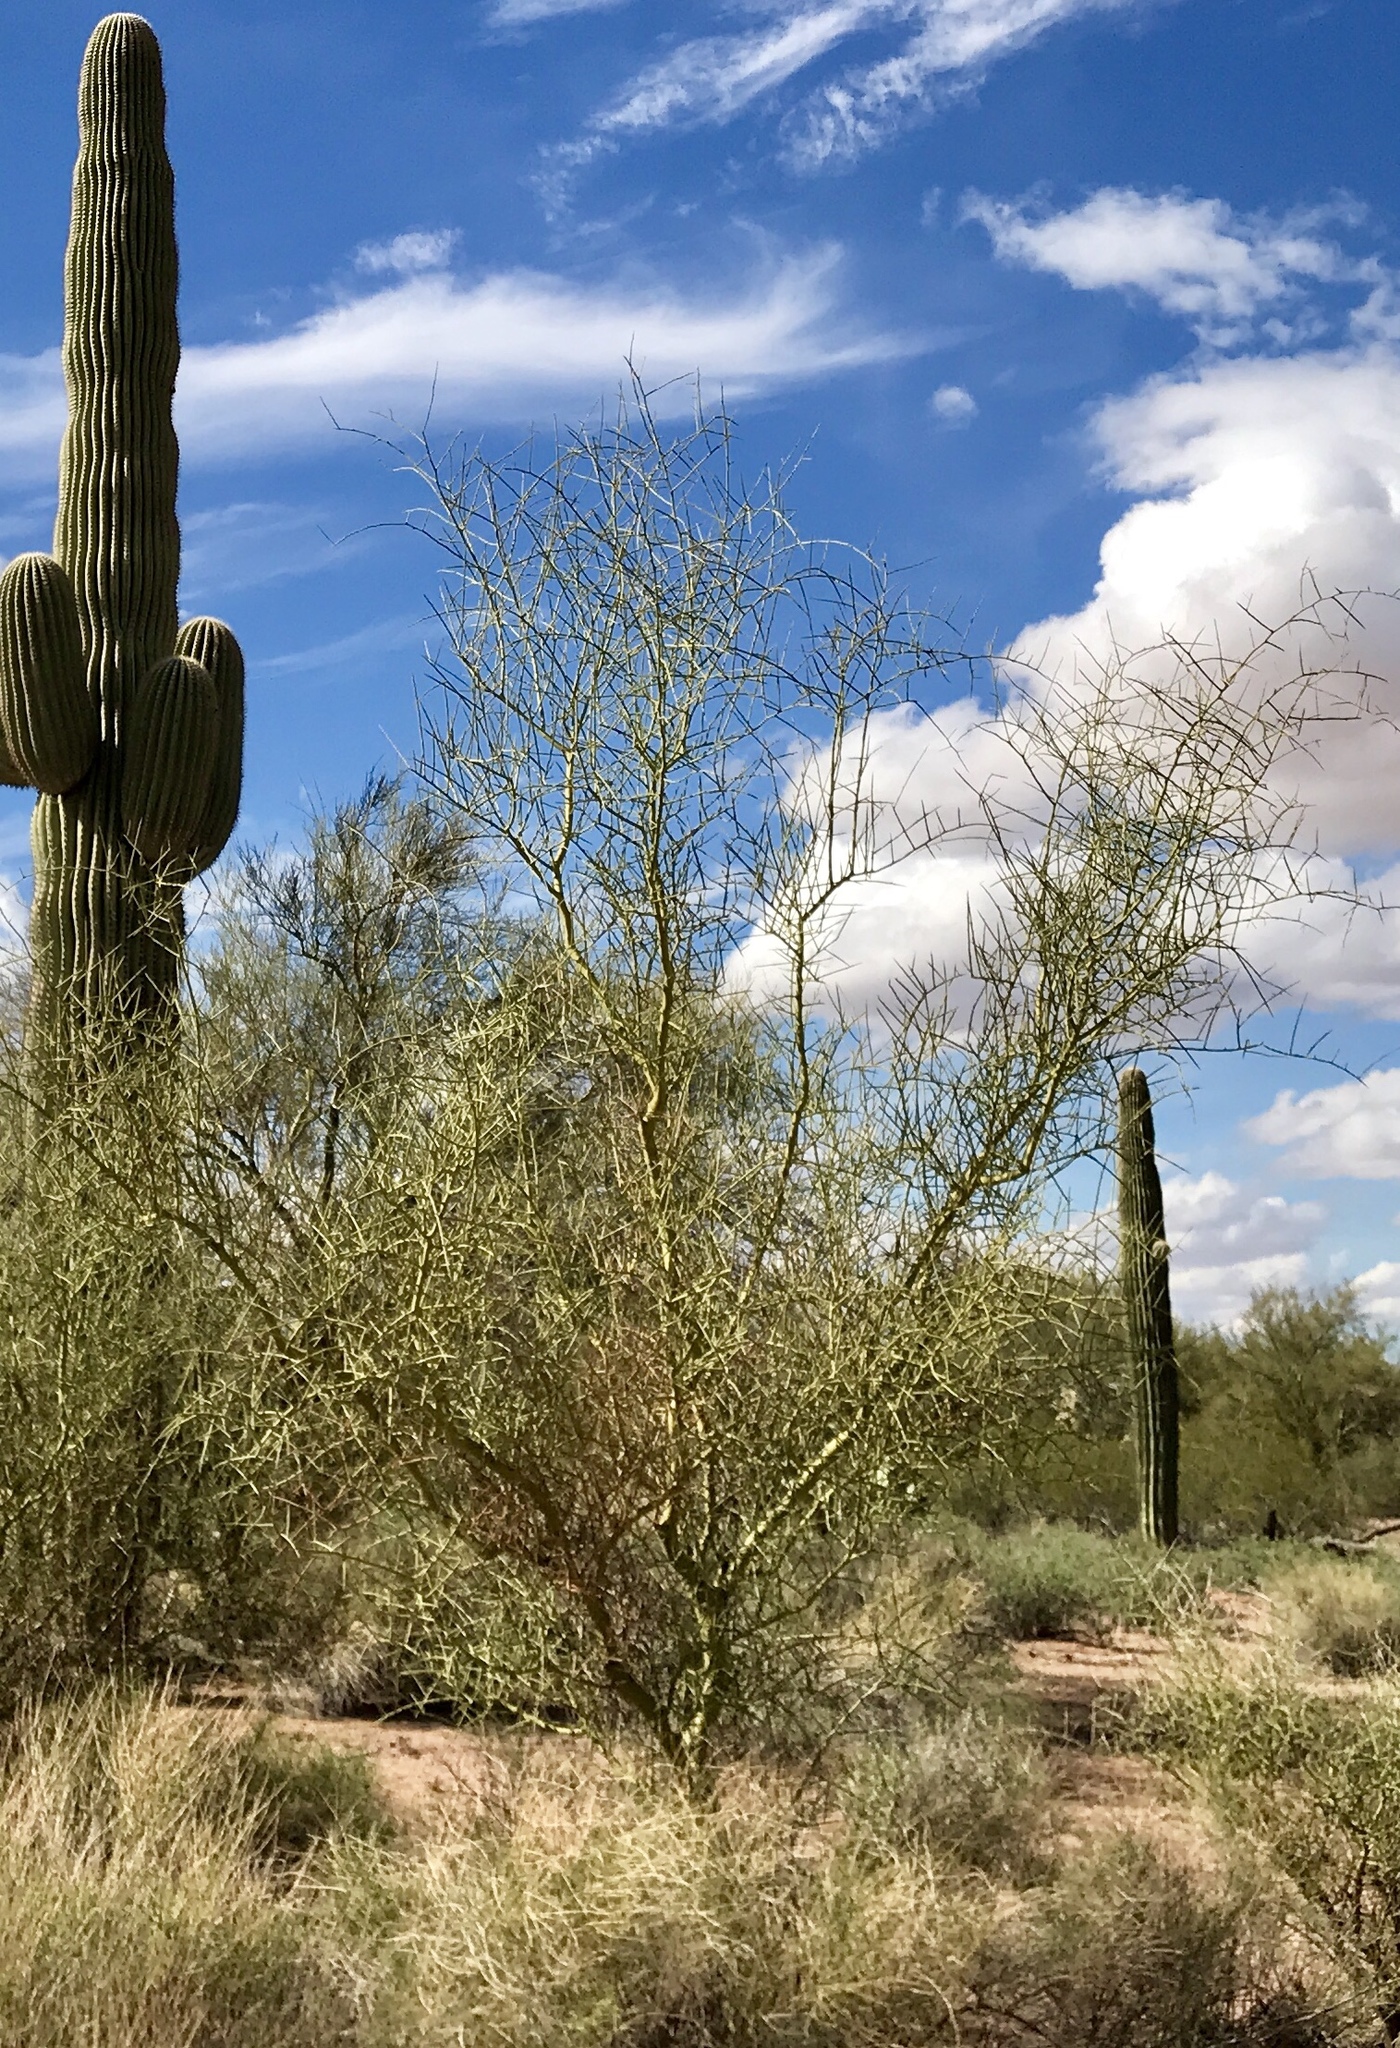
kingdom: Plantae
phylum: Tracheophyta
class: Magnoliopsida
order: Fabales
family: Fabaceae
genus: Parkinsonia
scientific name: Parkinsonia microphylla
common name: Yellow paloverde
